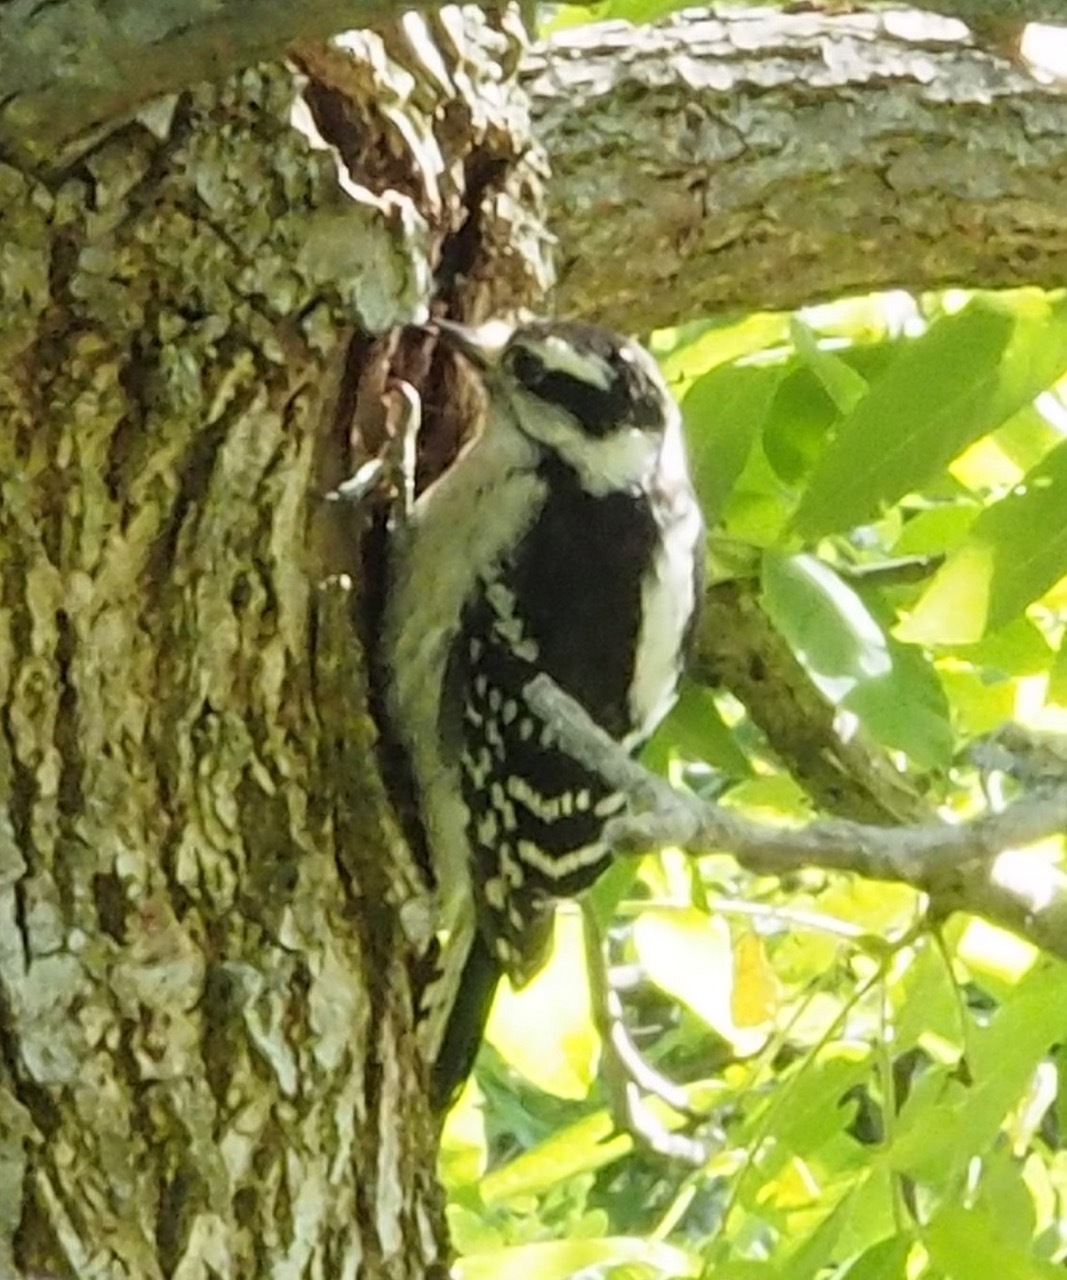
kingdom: Animalia
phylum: Chordata
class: Aves
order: Piciformes
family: Picidae
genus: Dryobates
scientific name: Dryobates pubescens
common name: Downy woodpecker
